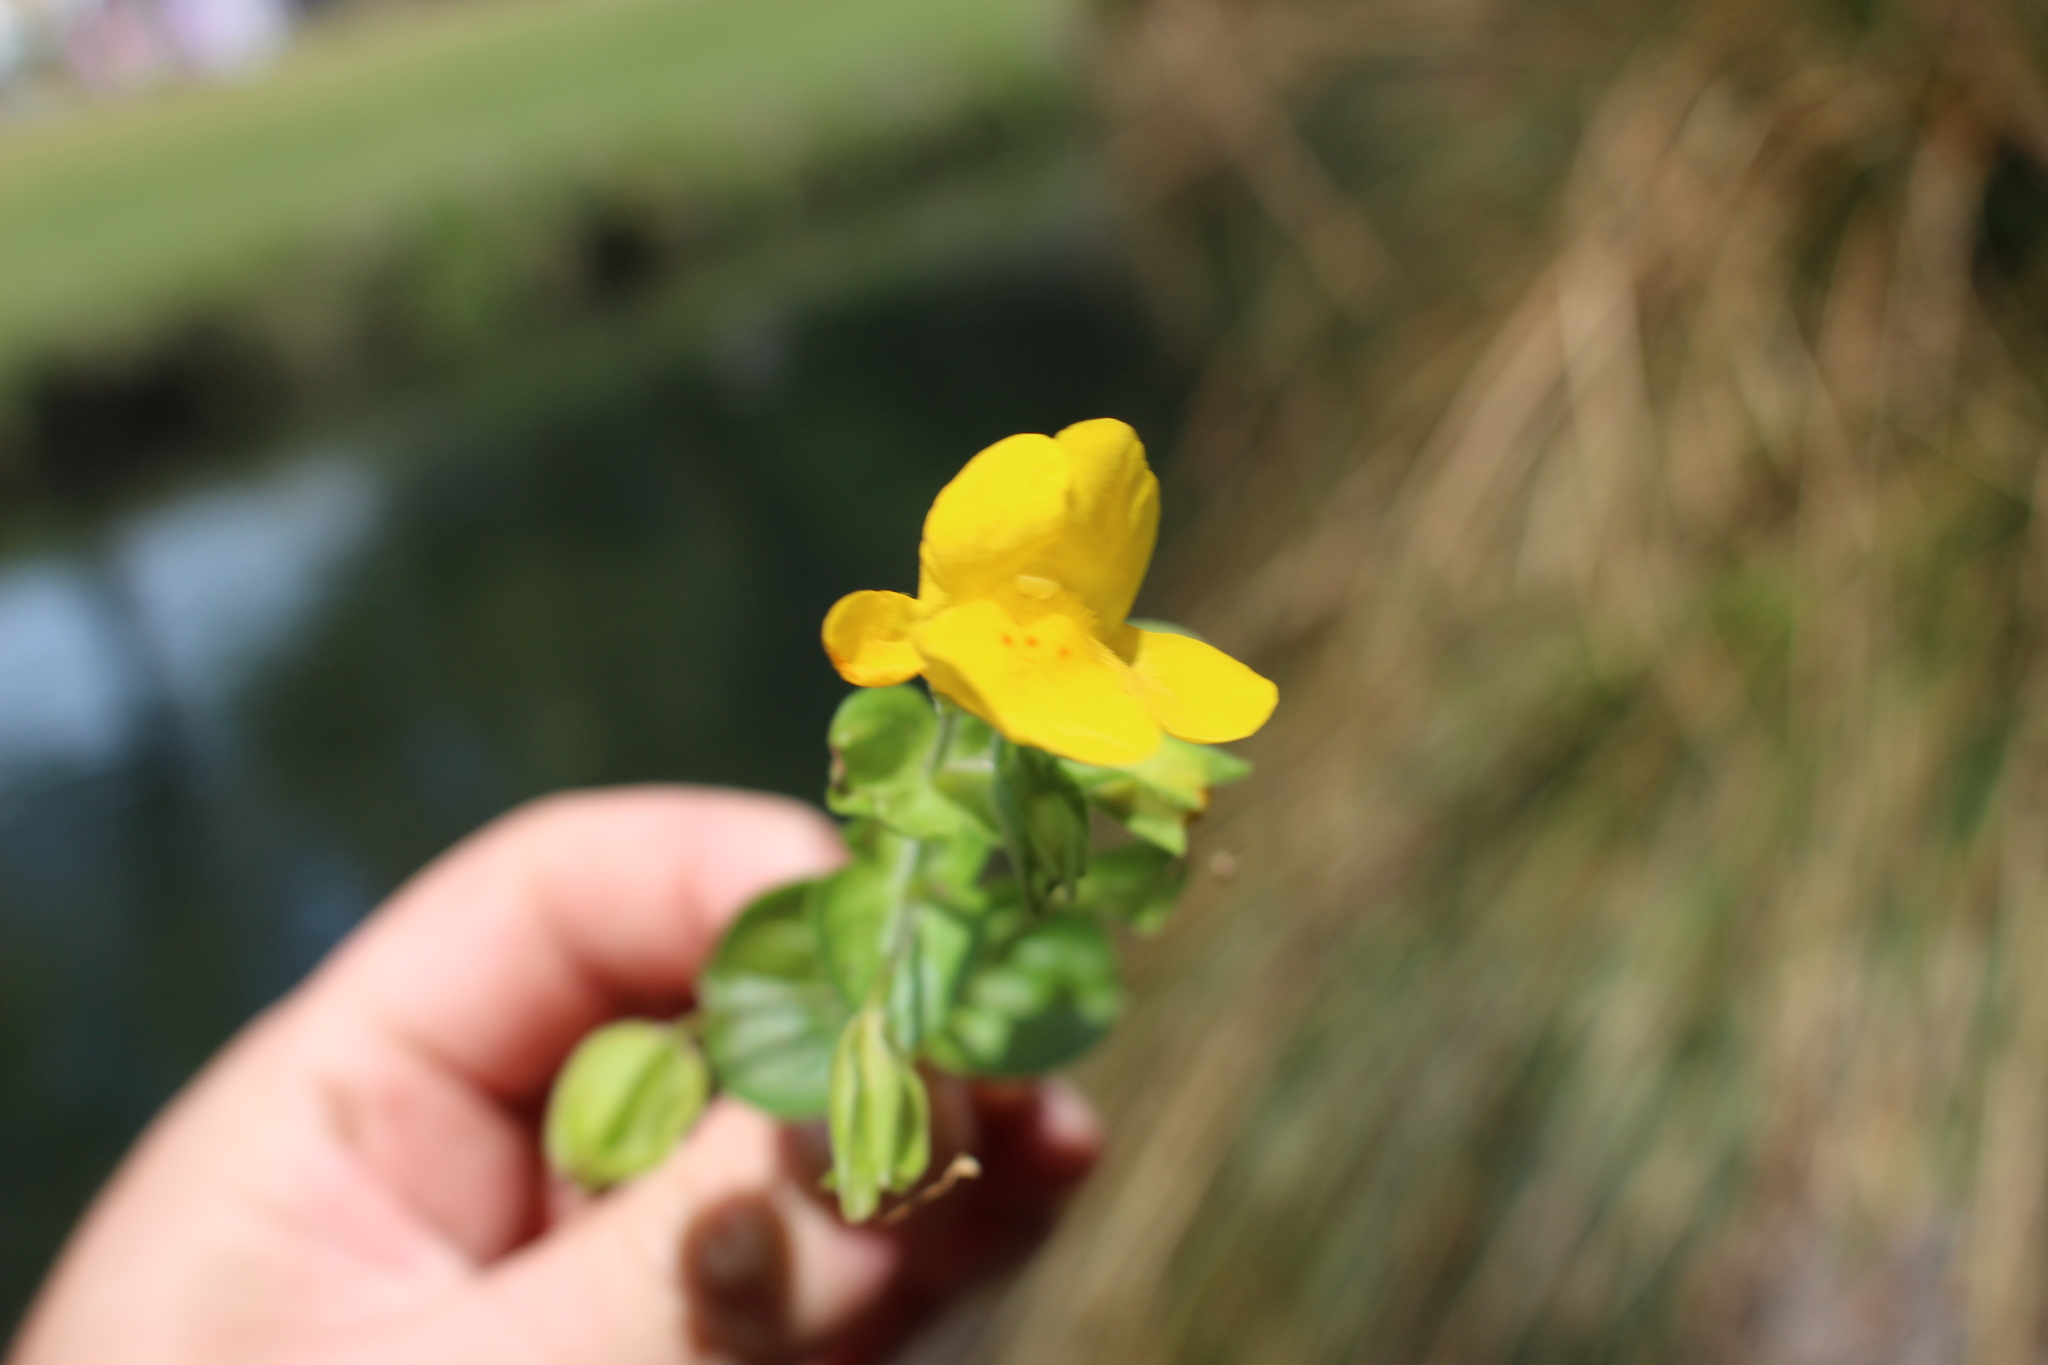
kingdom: Plantae
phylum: Tracheophyta
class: Magnoliopsida
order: Lamiales
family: Phrymaceae
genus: Erythranthe
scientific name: Erythranthe guttata
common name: Monkeyflower
